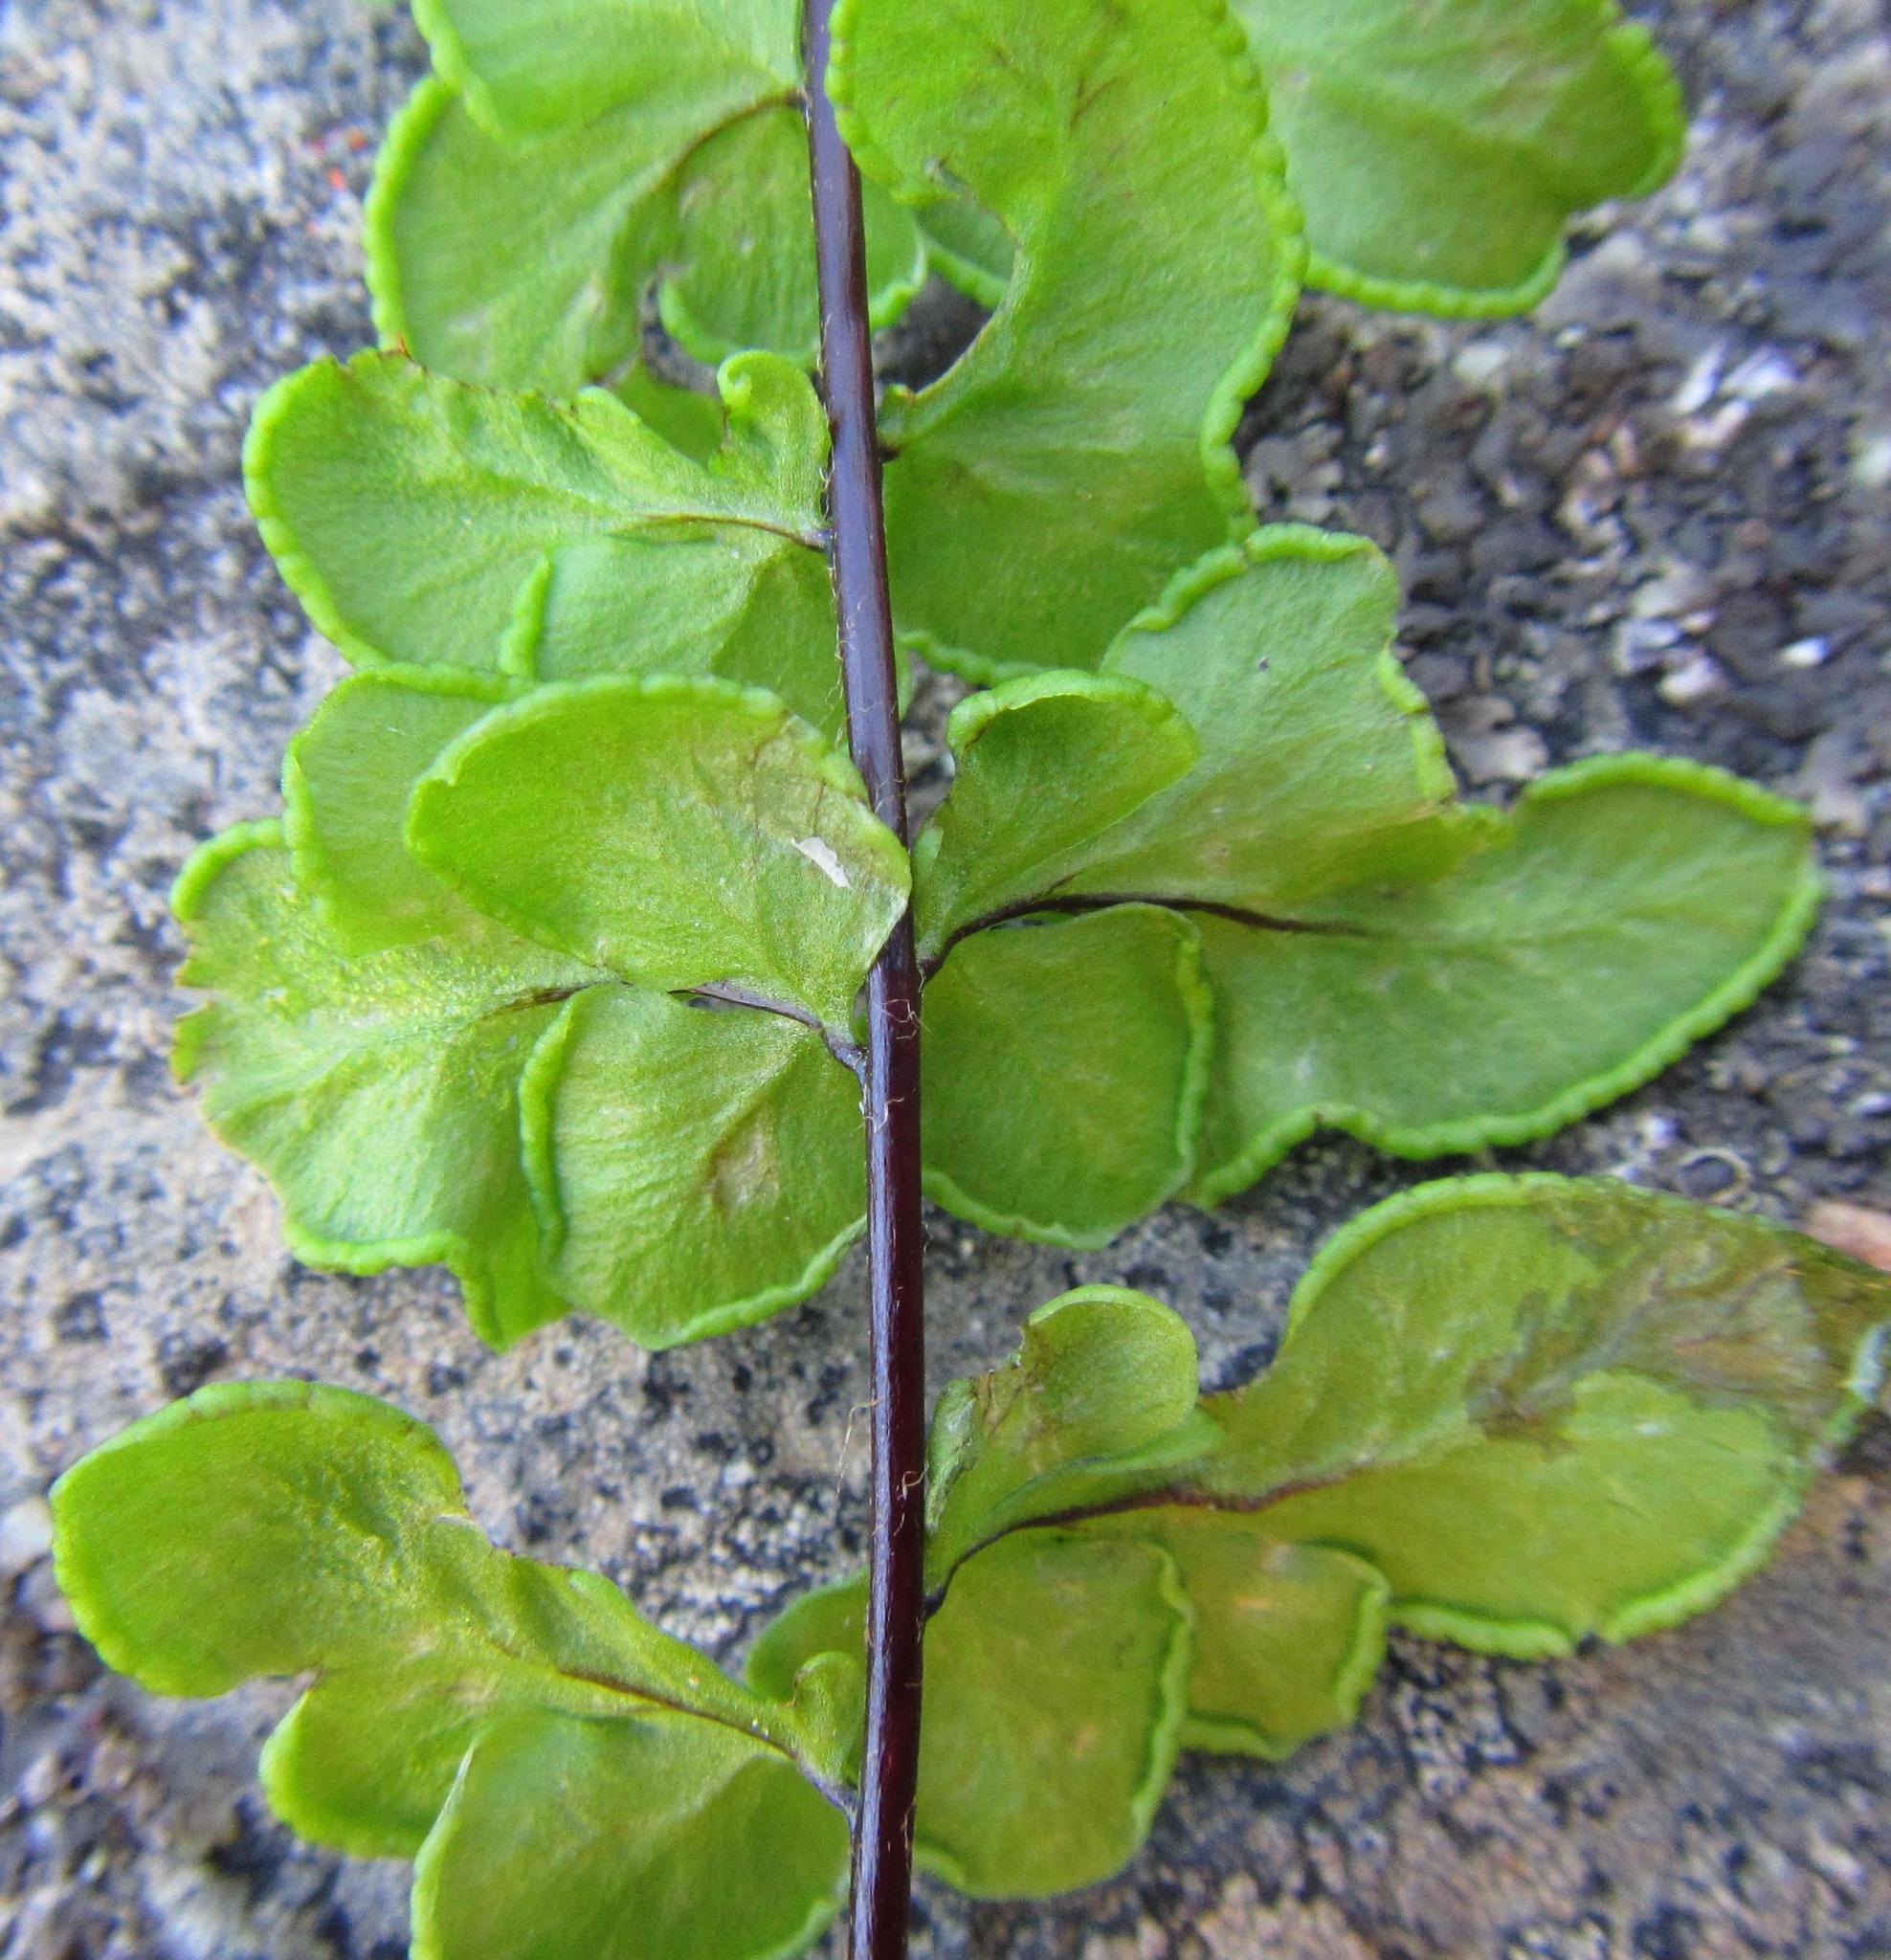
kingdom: Plantae
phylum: Tracheophyta
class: Polypodiopsida
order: Polypodiales
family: Pteridaceae
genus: Cheilanthes
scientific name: Cheilanthes hastata
